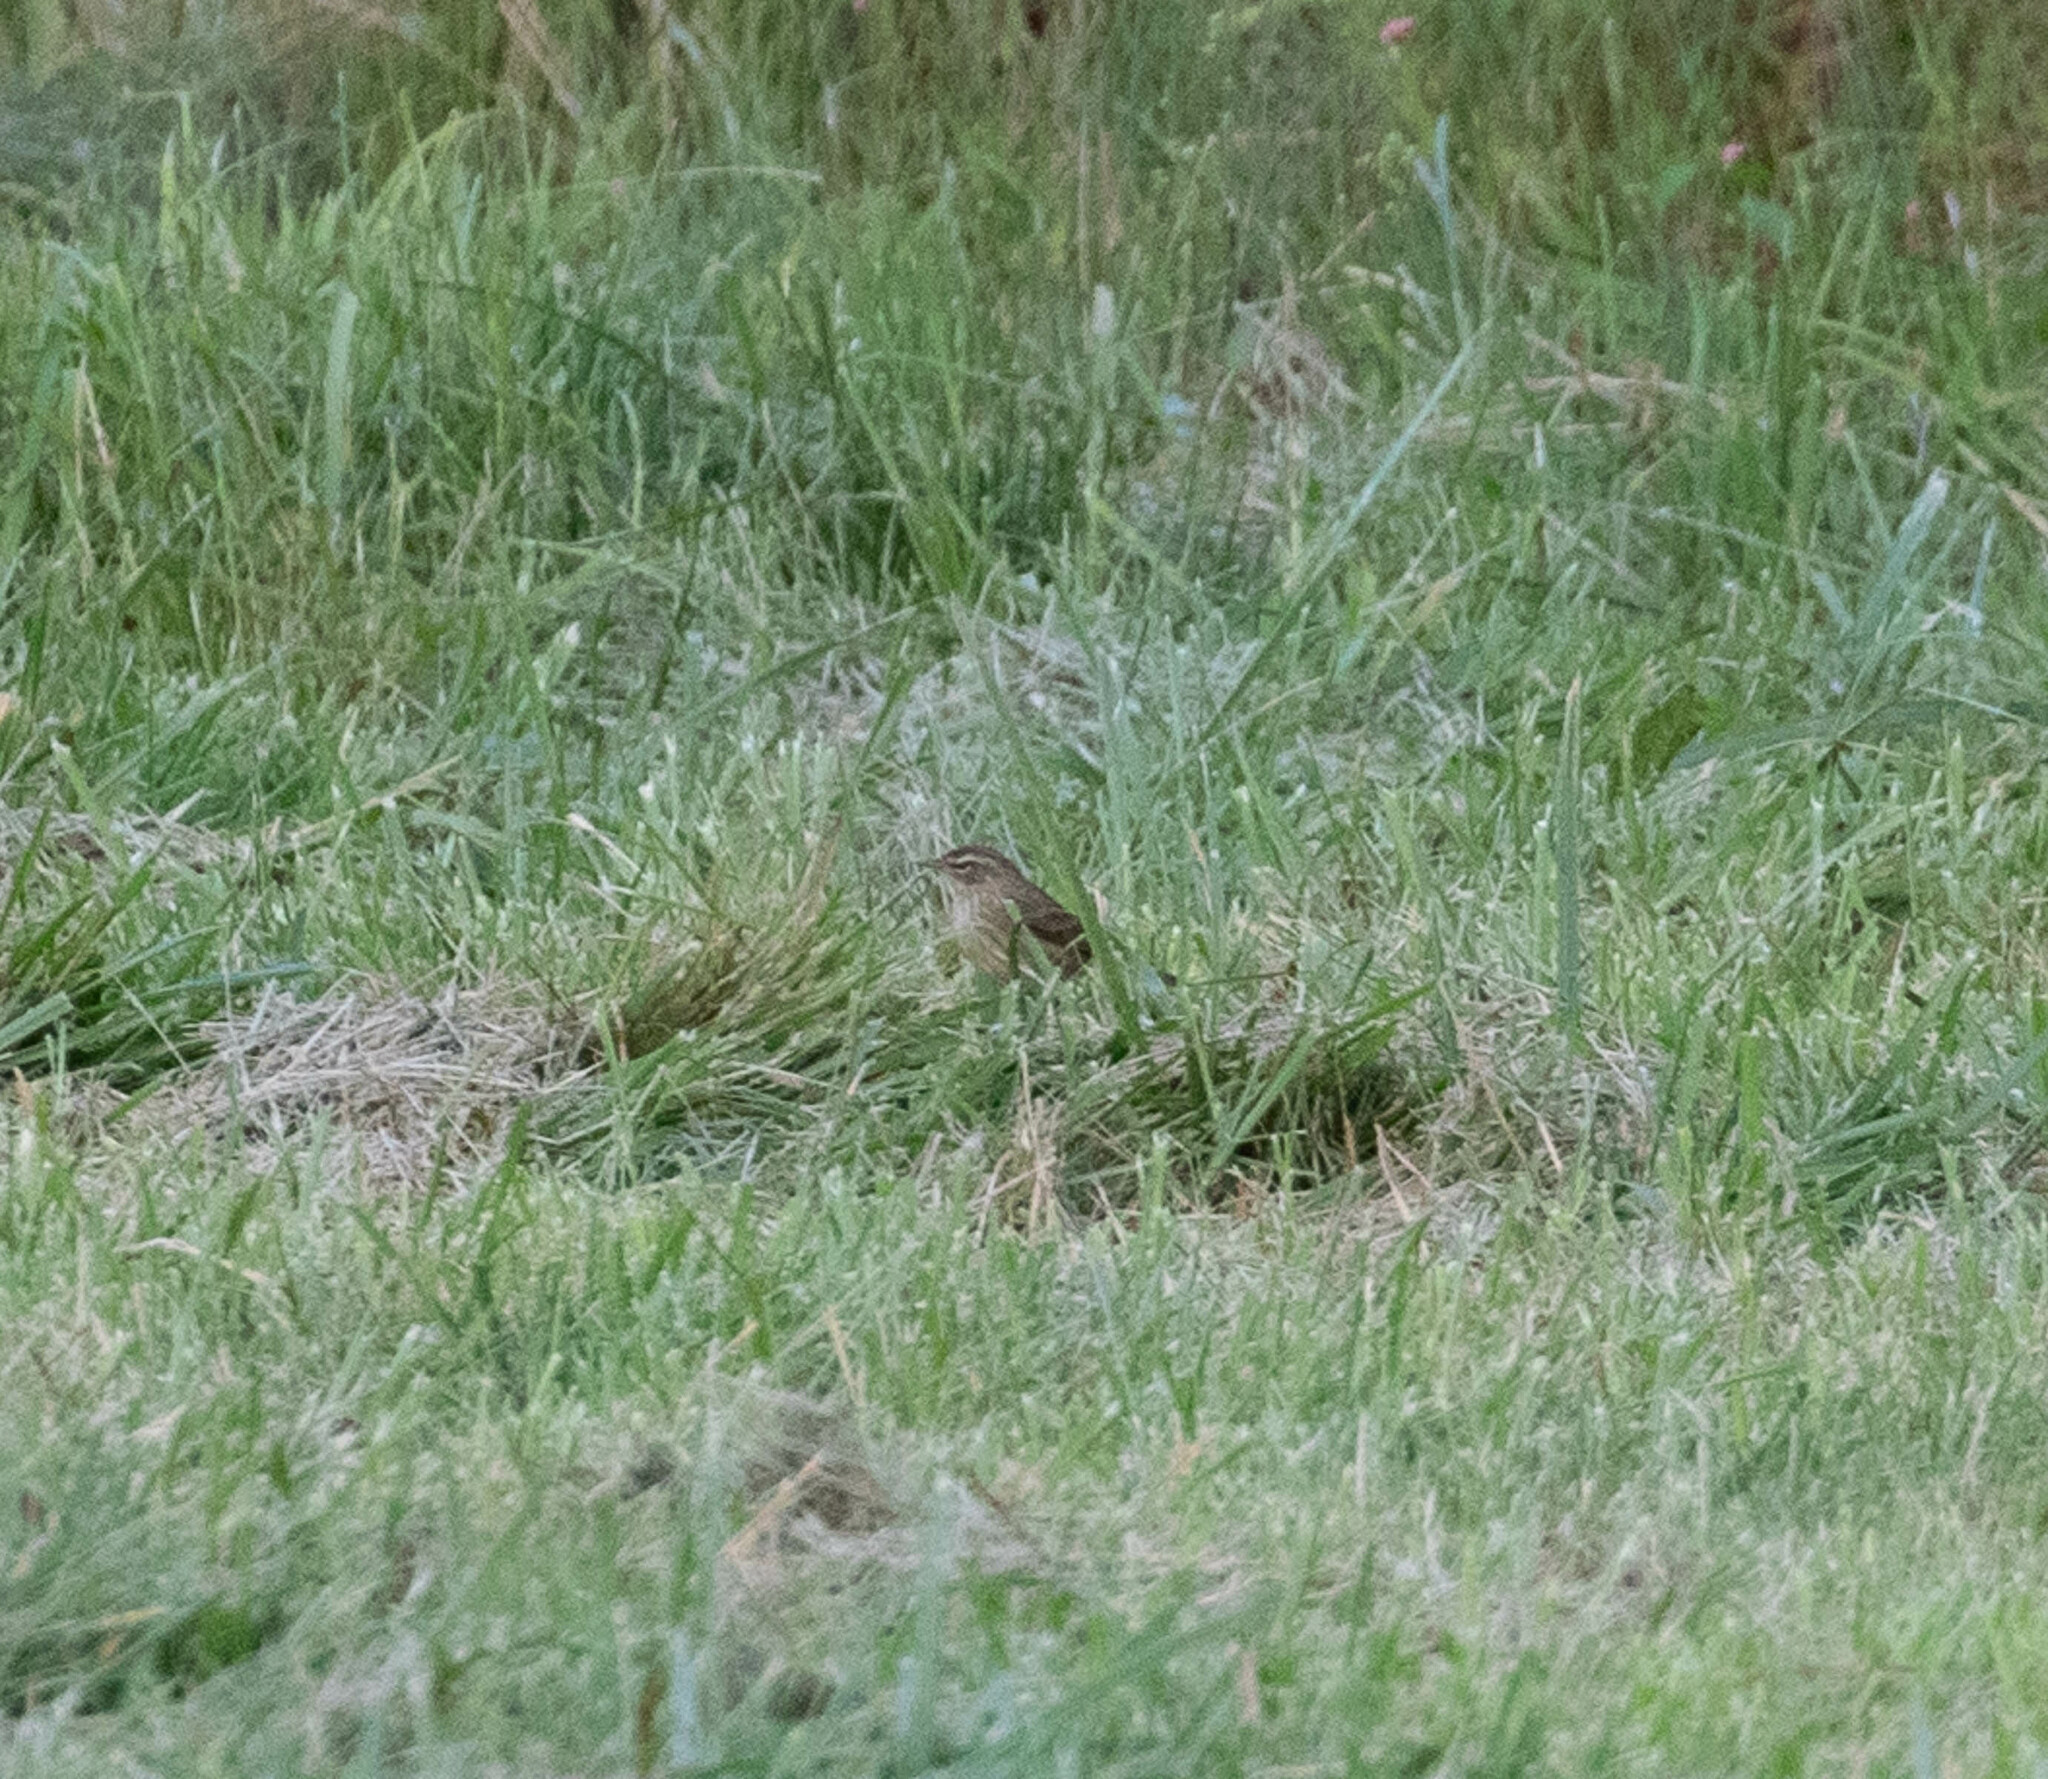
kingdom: Animalia
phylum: Chordata
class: Aves
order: Passeriformes
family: Parulidae
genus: Setophaga
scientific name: Setophaga palmarum
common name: Palm warbler
